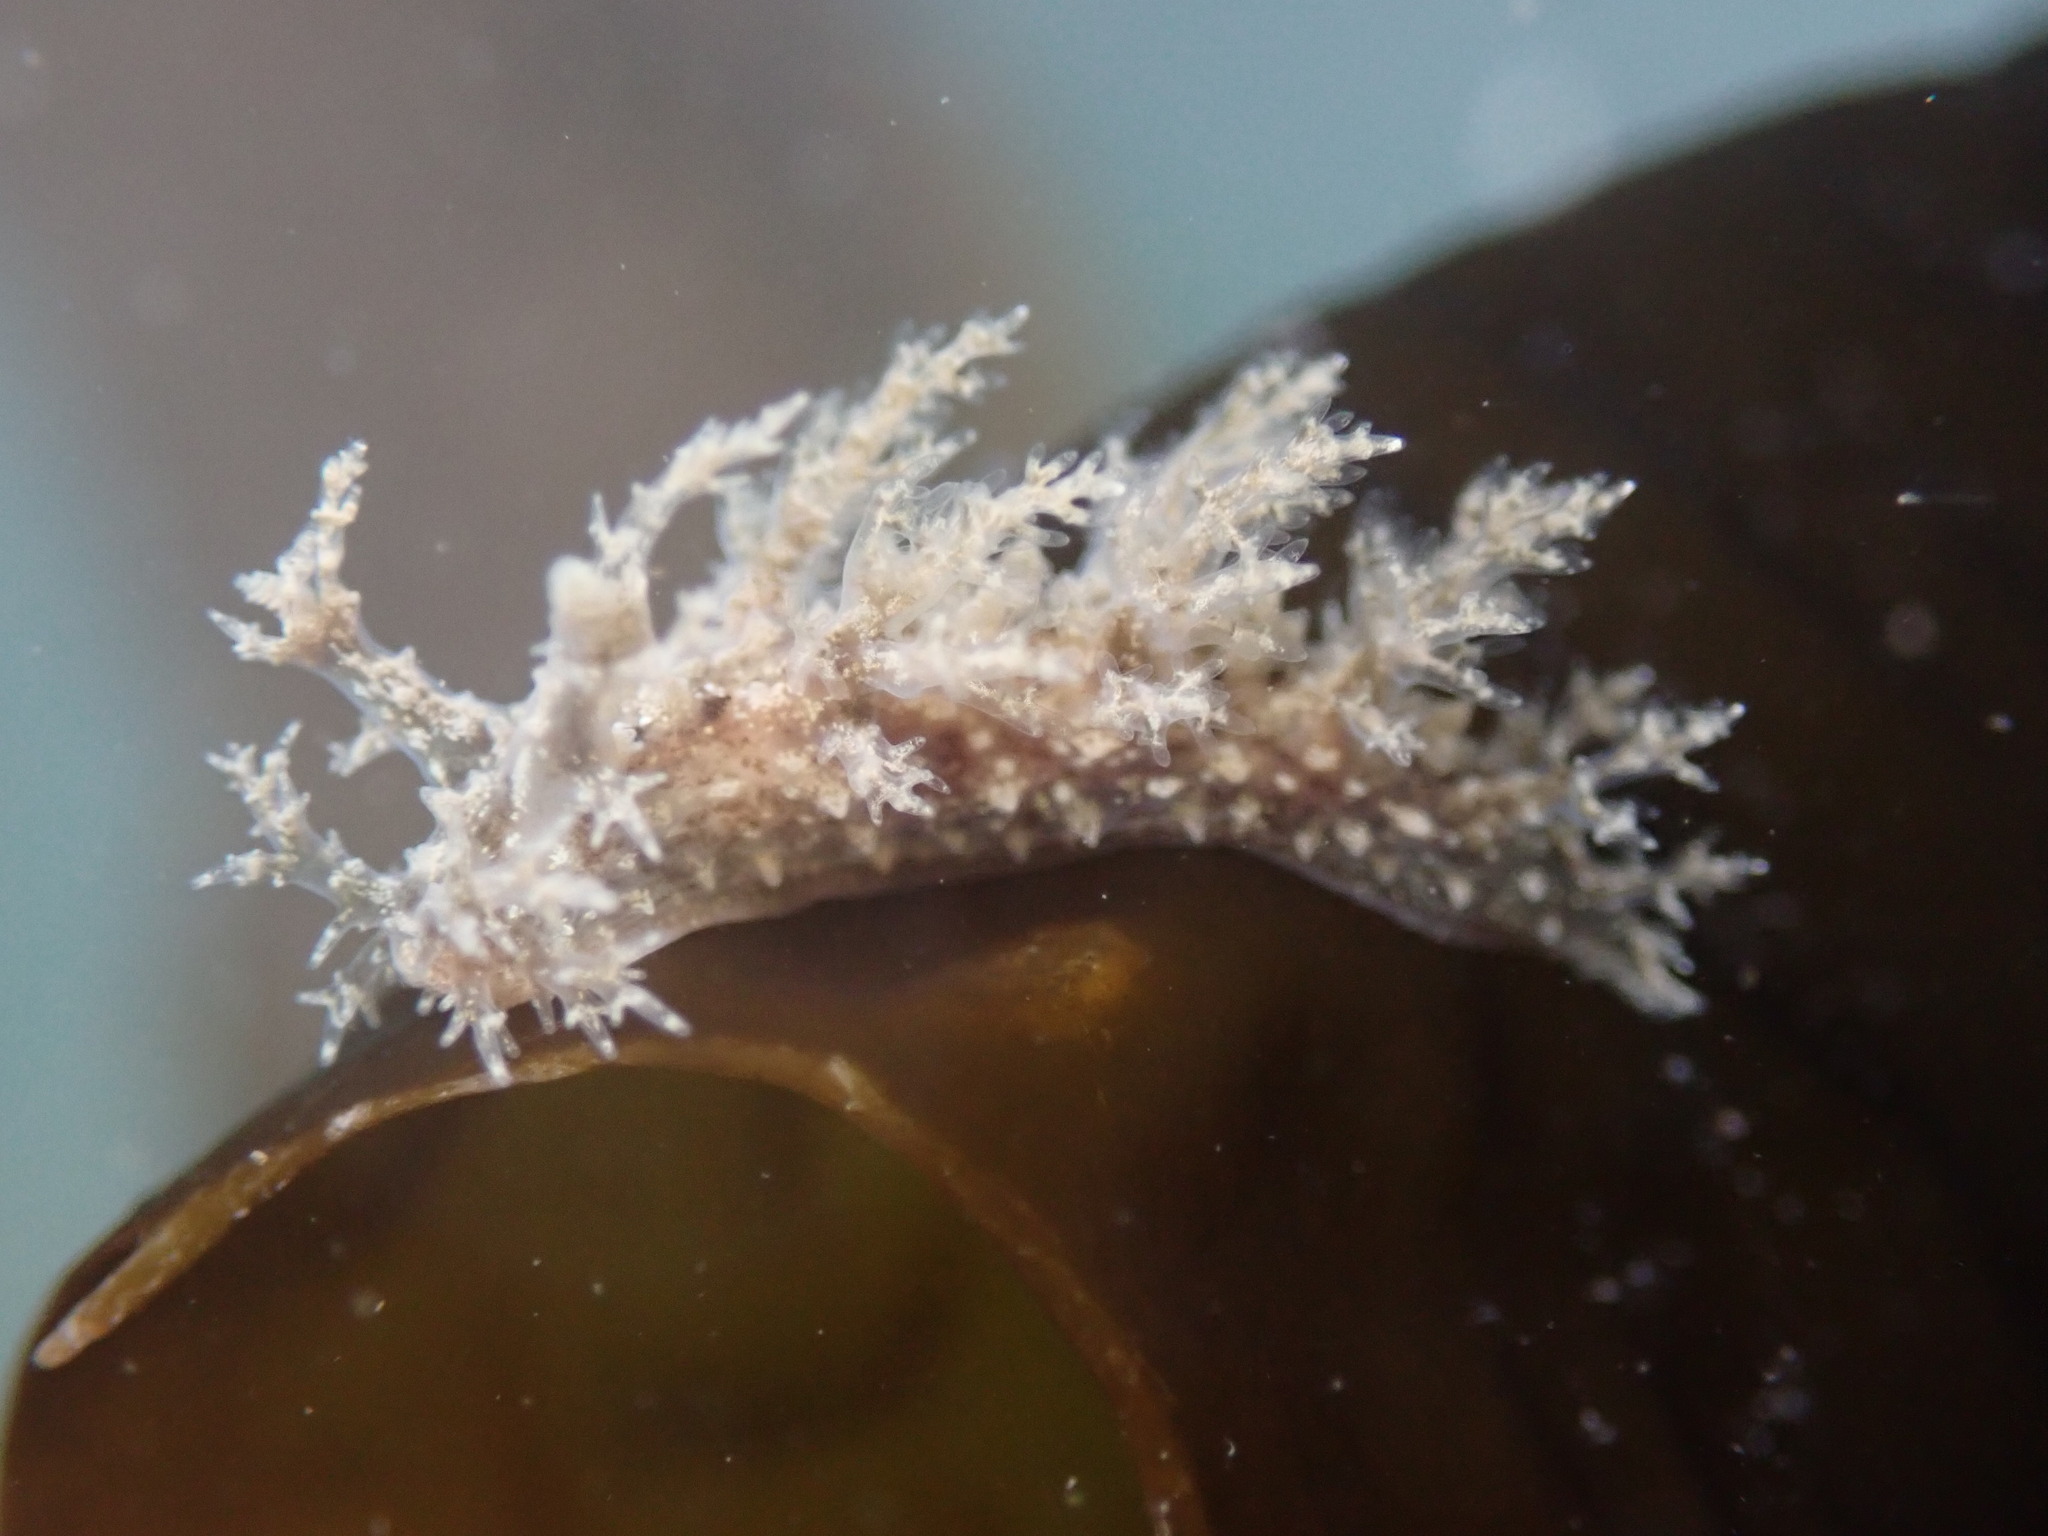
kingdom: Animalia
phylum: Mollusca
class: Gastropoda
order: Nudibranchia
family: Dendronotidae
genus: Dendronotus
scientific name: Dendronotus venustus
